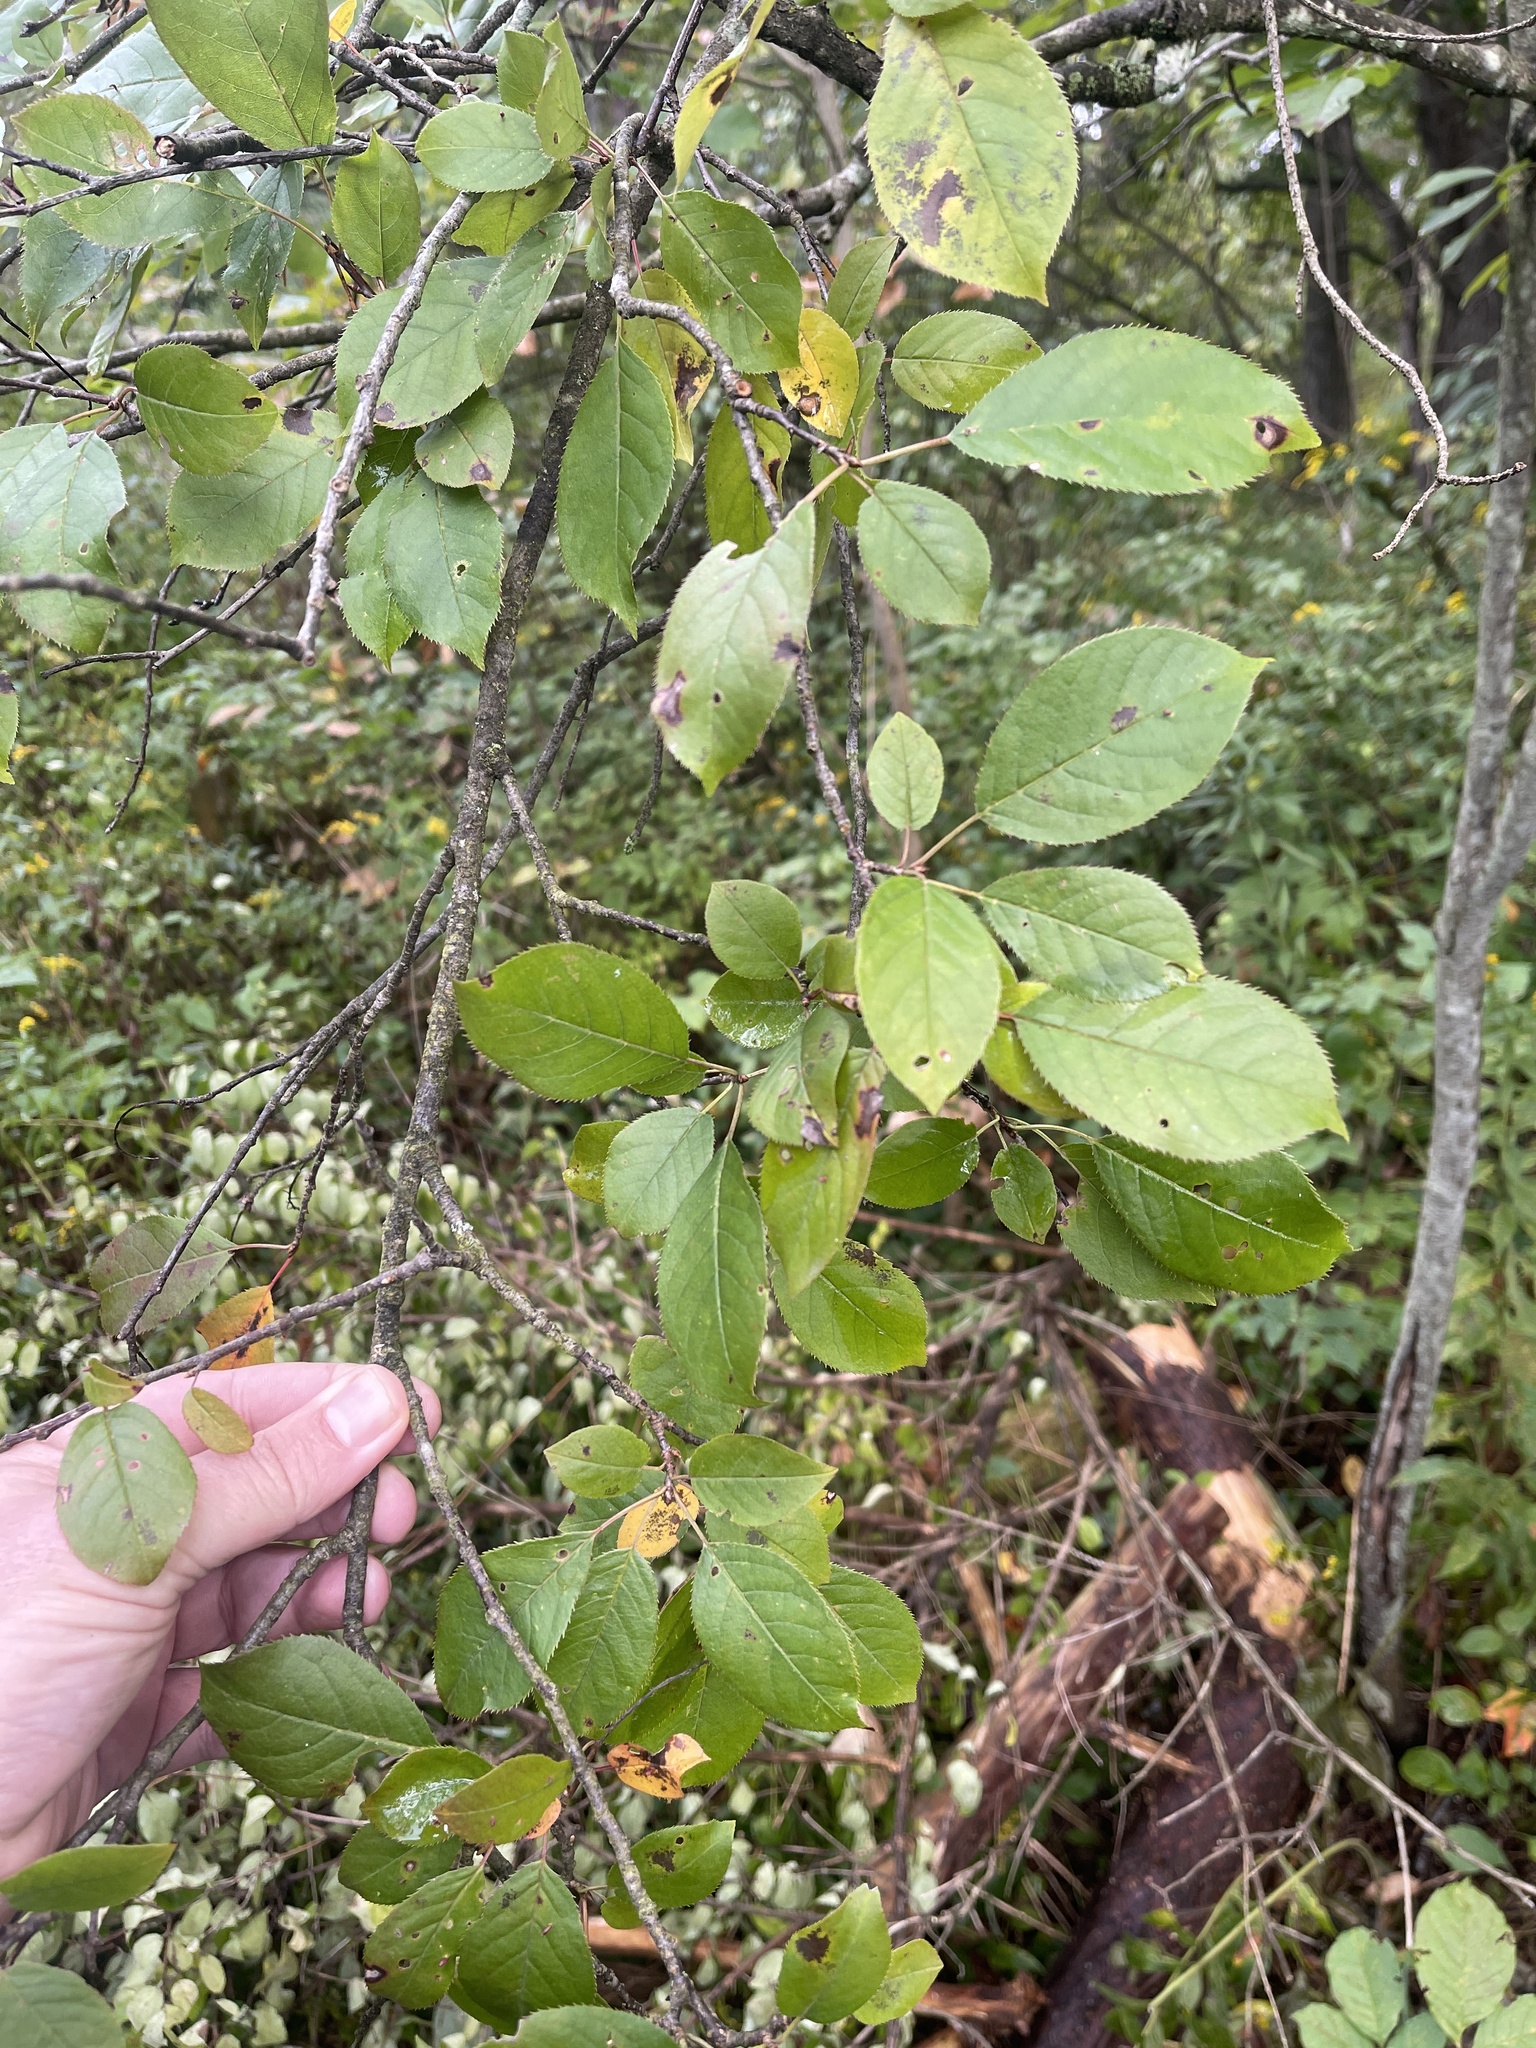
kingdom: Plantae
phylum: Tracheophyta
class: Magnoliopsida
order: Rosales
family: Rosaceae
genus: Prunus
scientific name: Prunus virginiana
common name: Chokecherry
